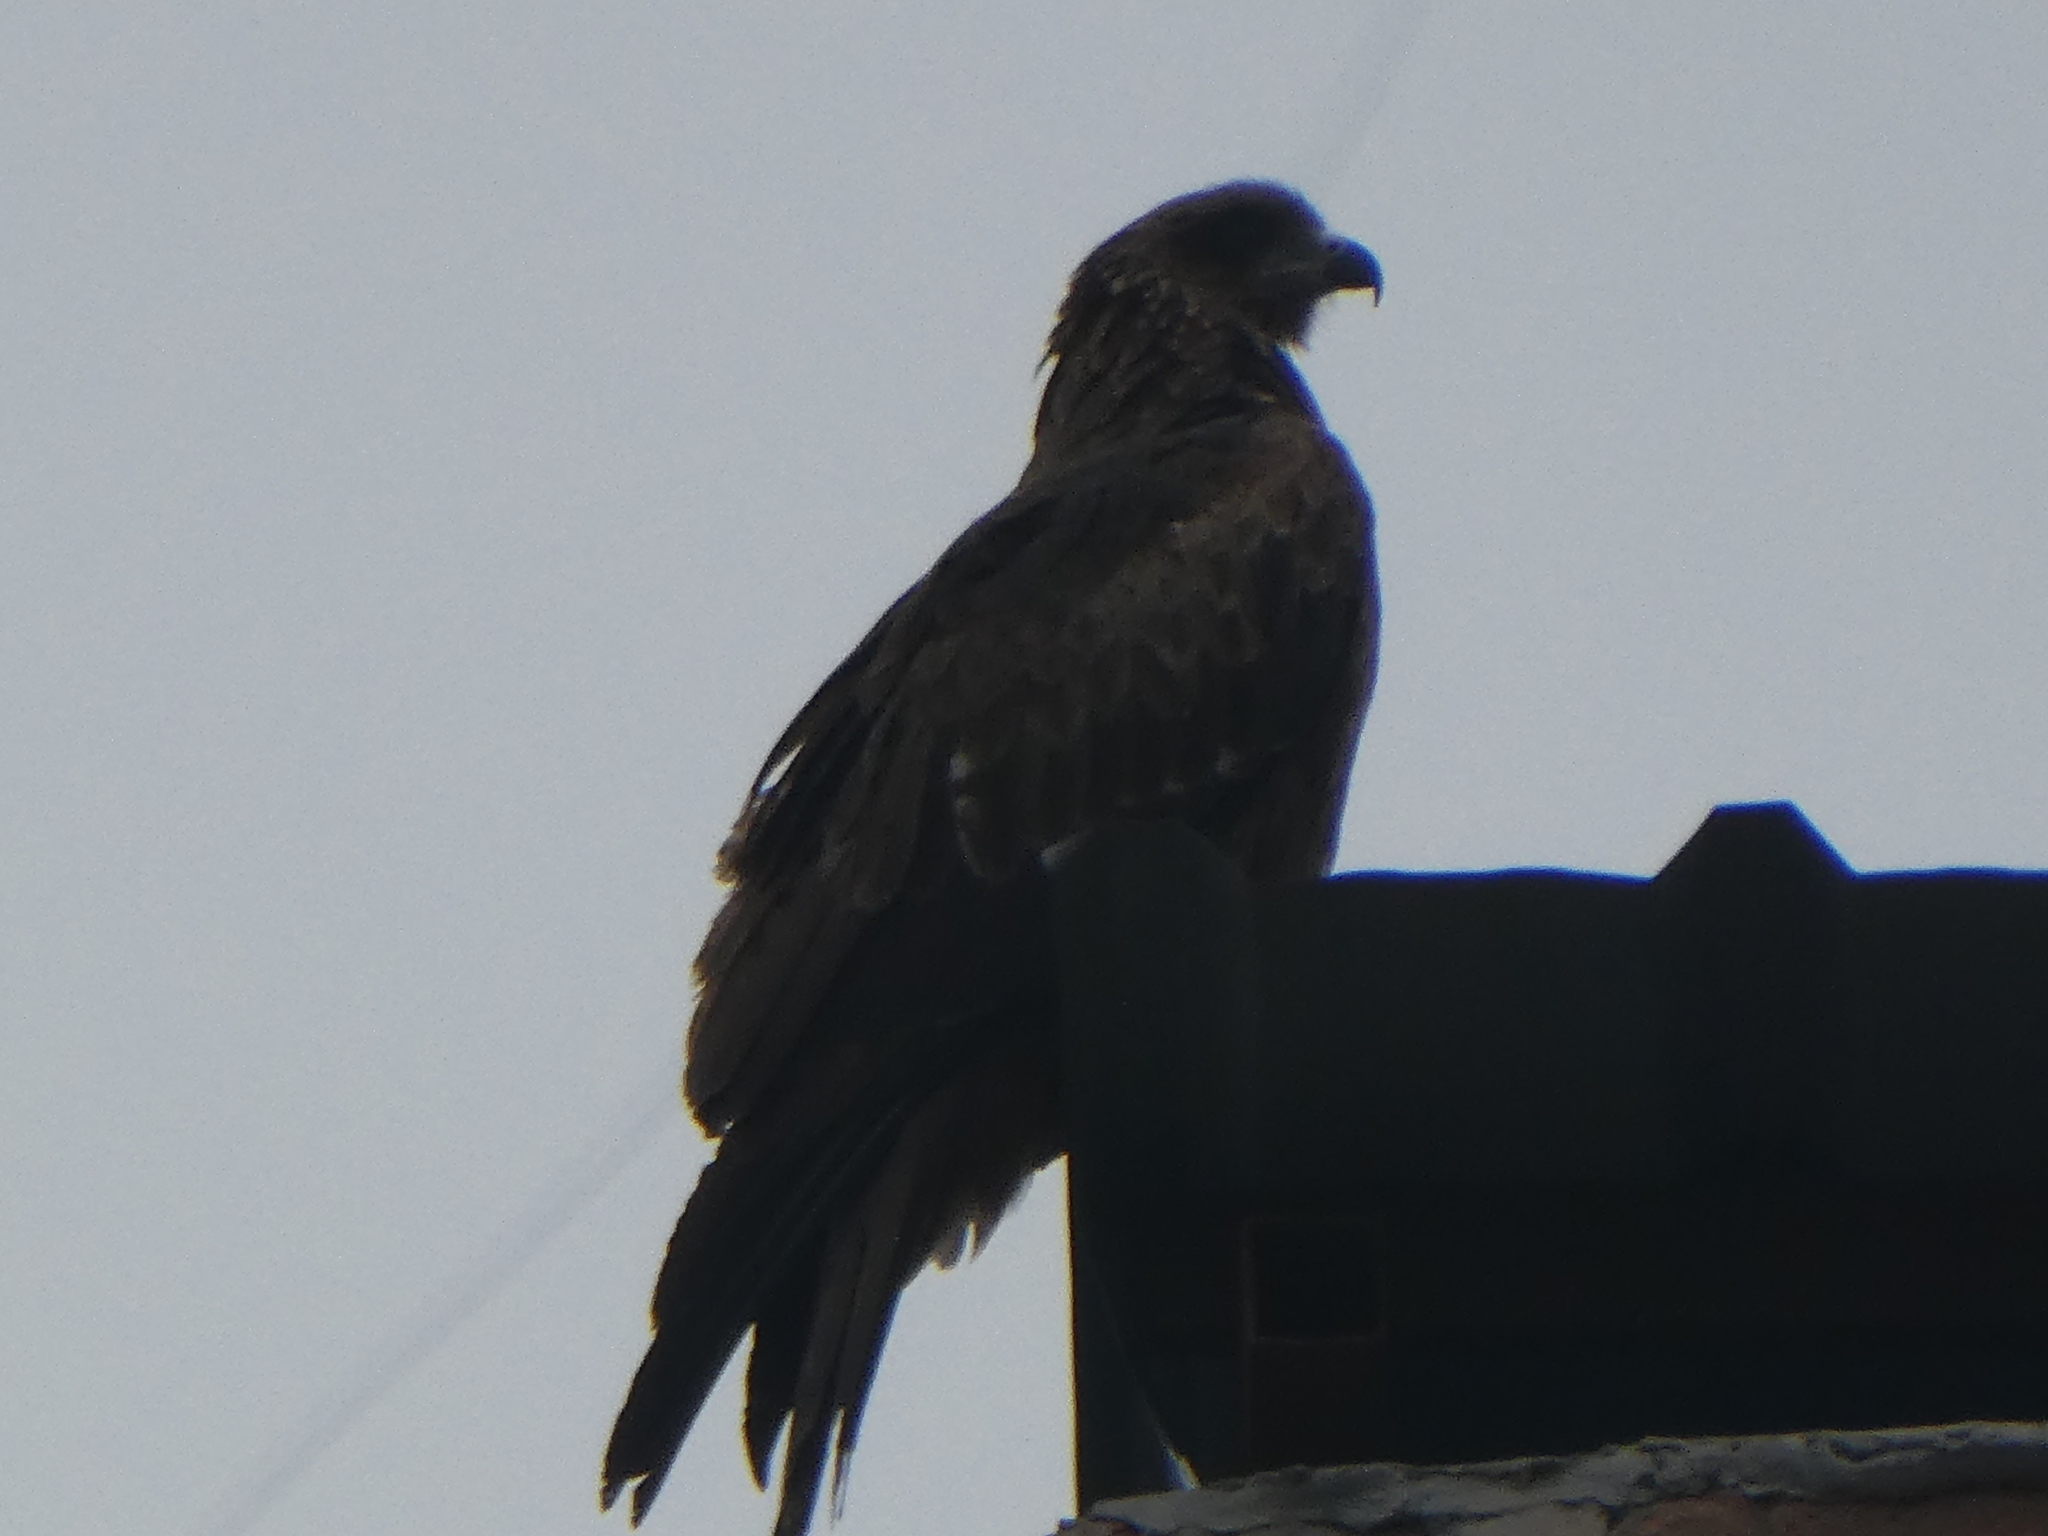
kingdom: Animalia
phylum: Chordata
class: Aves
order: Accipitriformes
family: Accipitridae
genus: Milvus
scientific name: Milvus migrans
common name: Black kite
